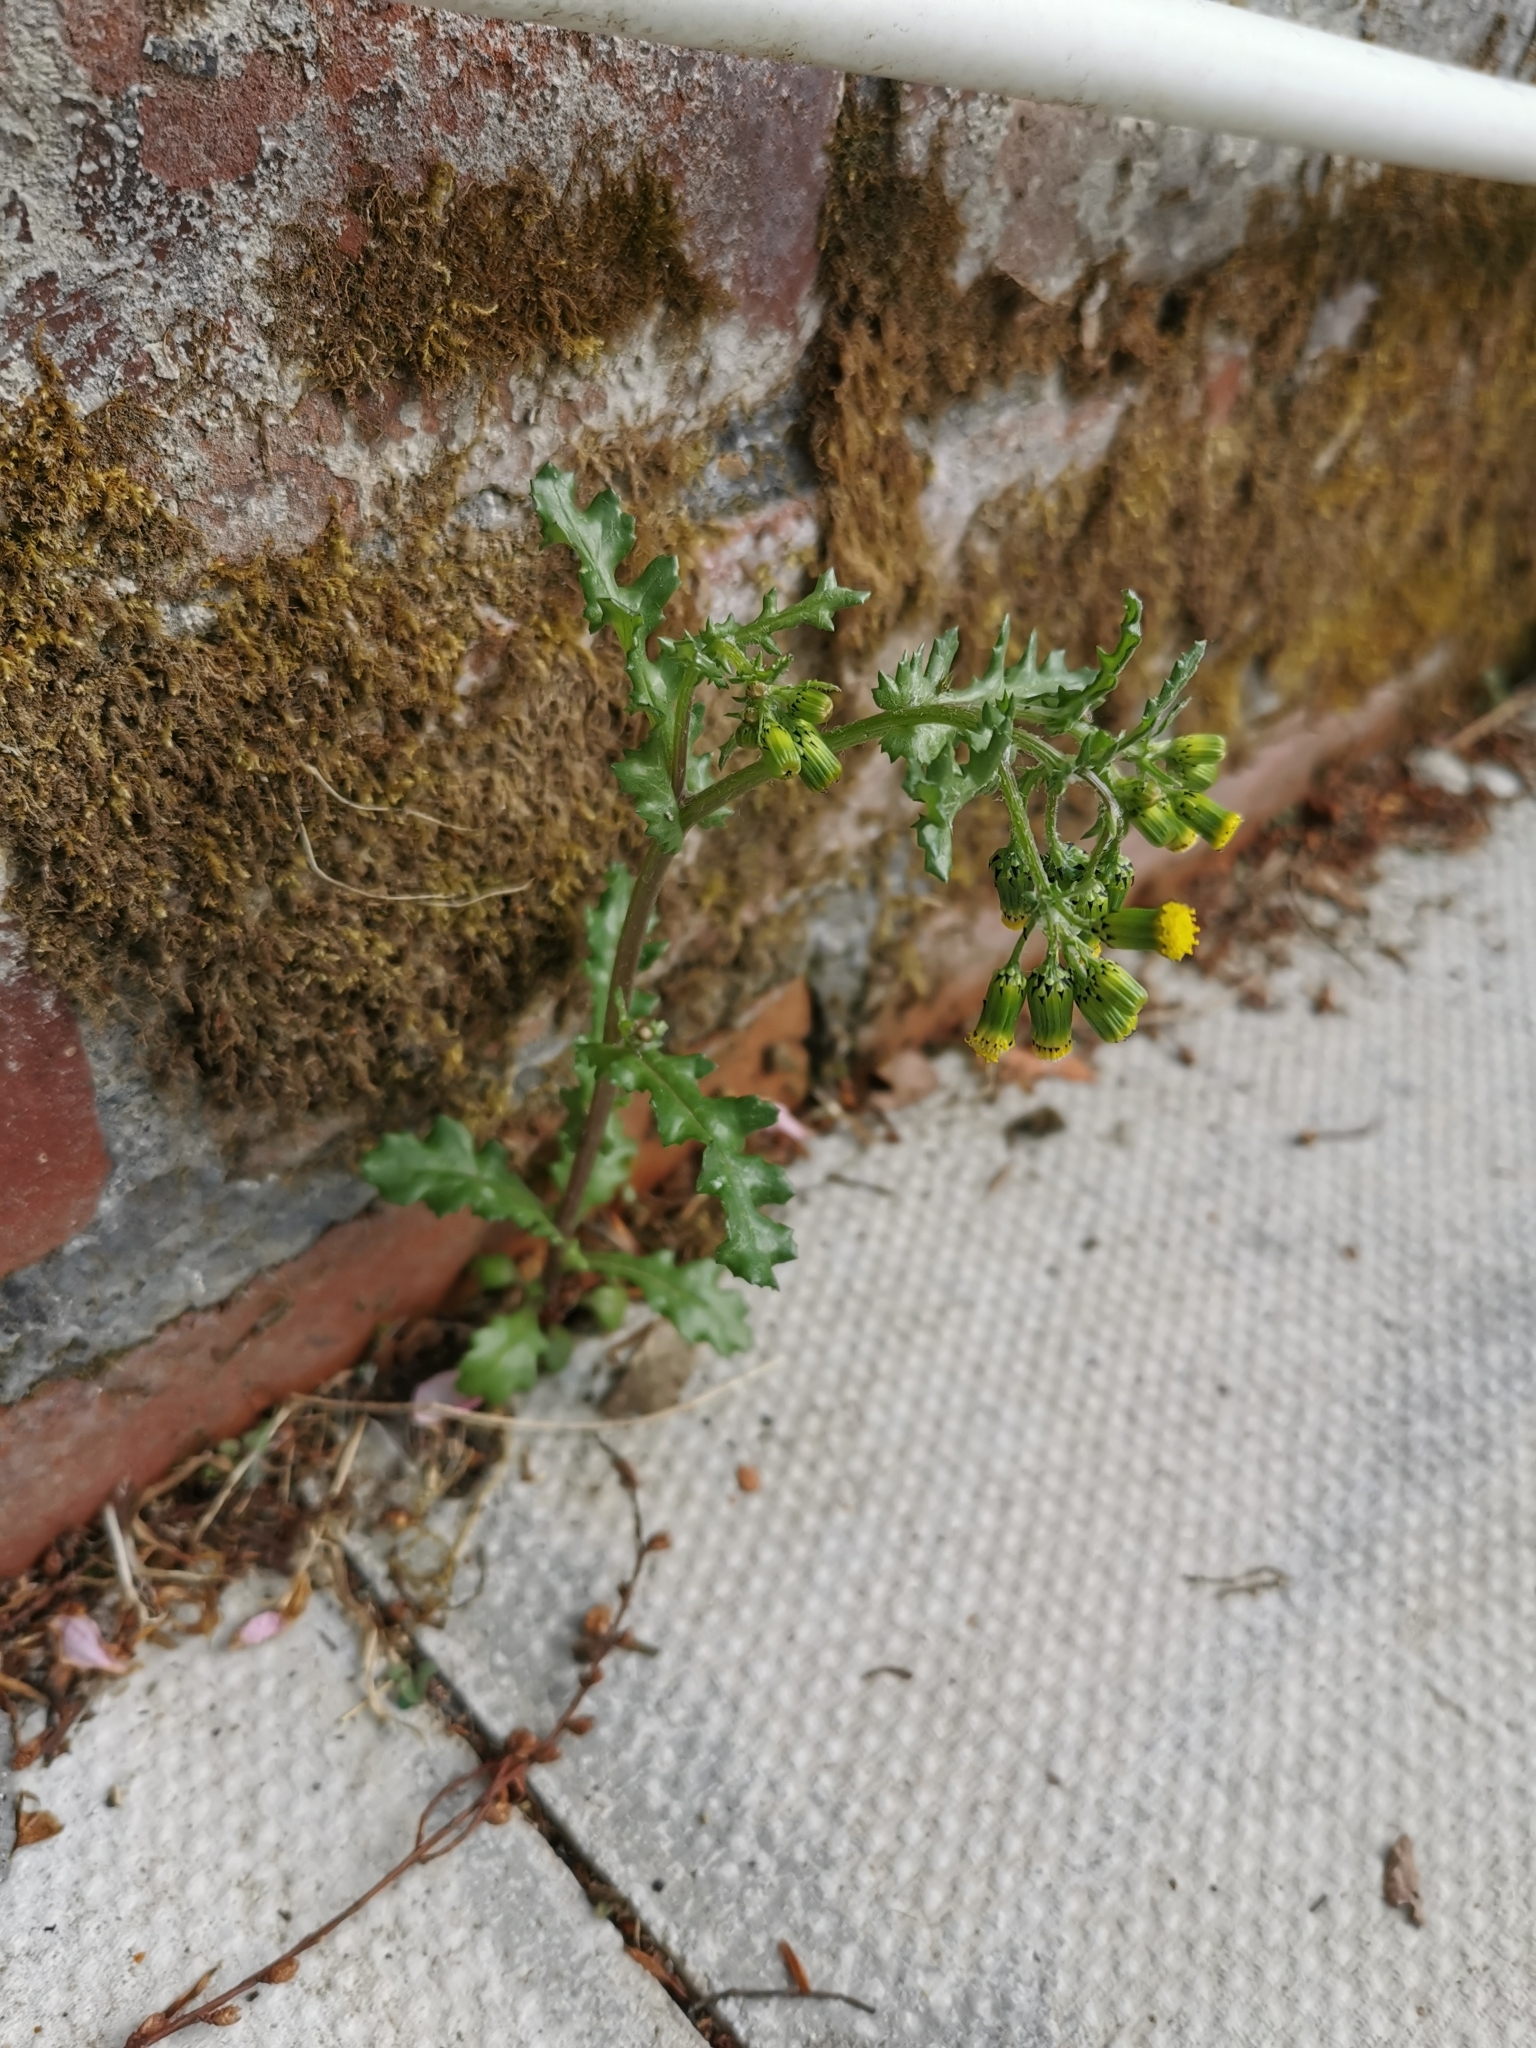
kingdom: Plantae
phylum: Tracheophyta
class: Magnoliopsida
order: Asterales
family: Asteraceae
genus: Senecio
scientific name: Senecio vulgaris
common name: Old-man-in-the-spring
